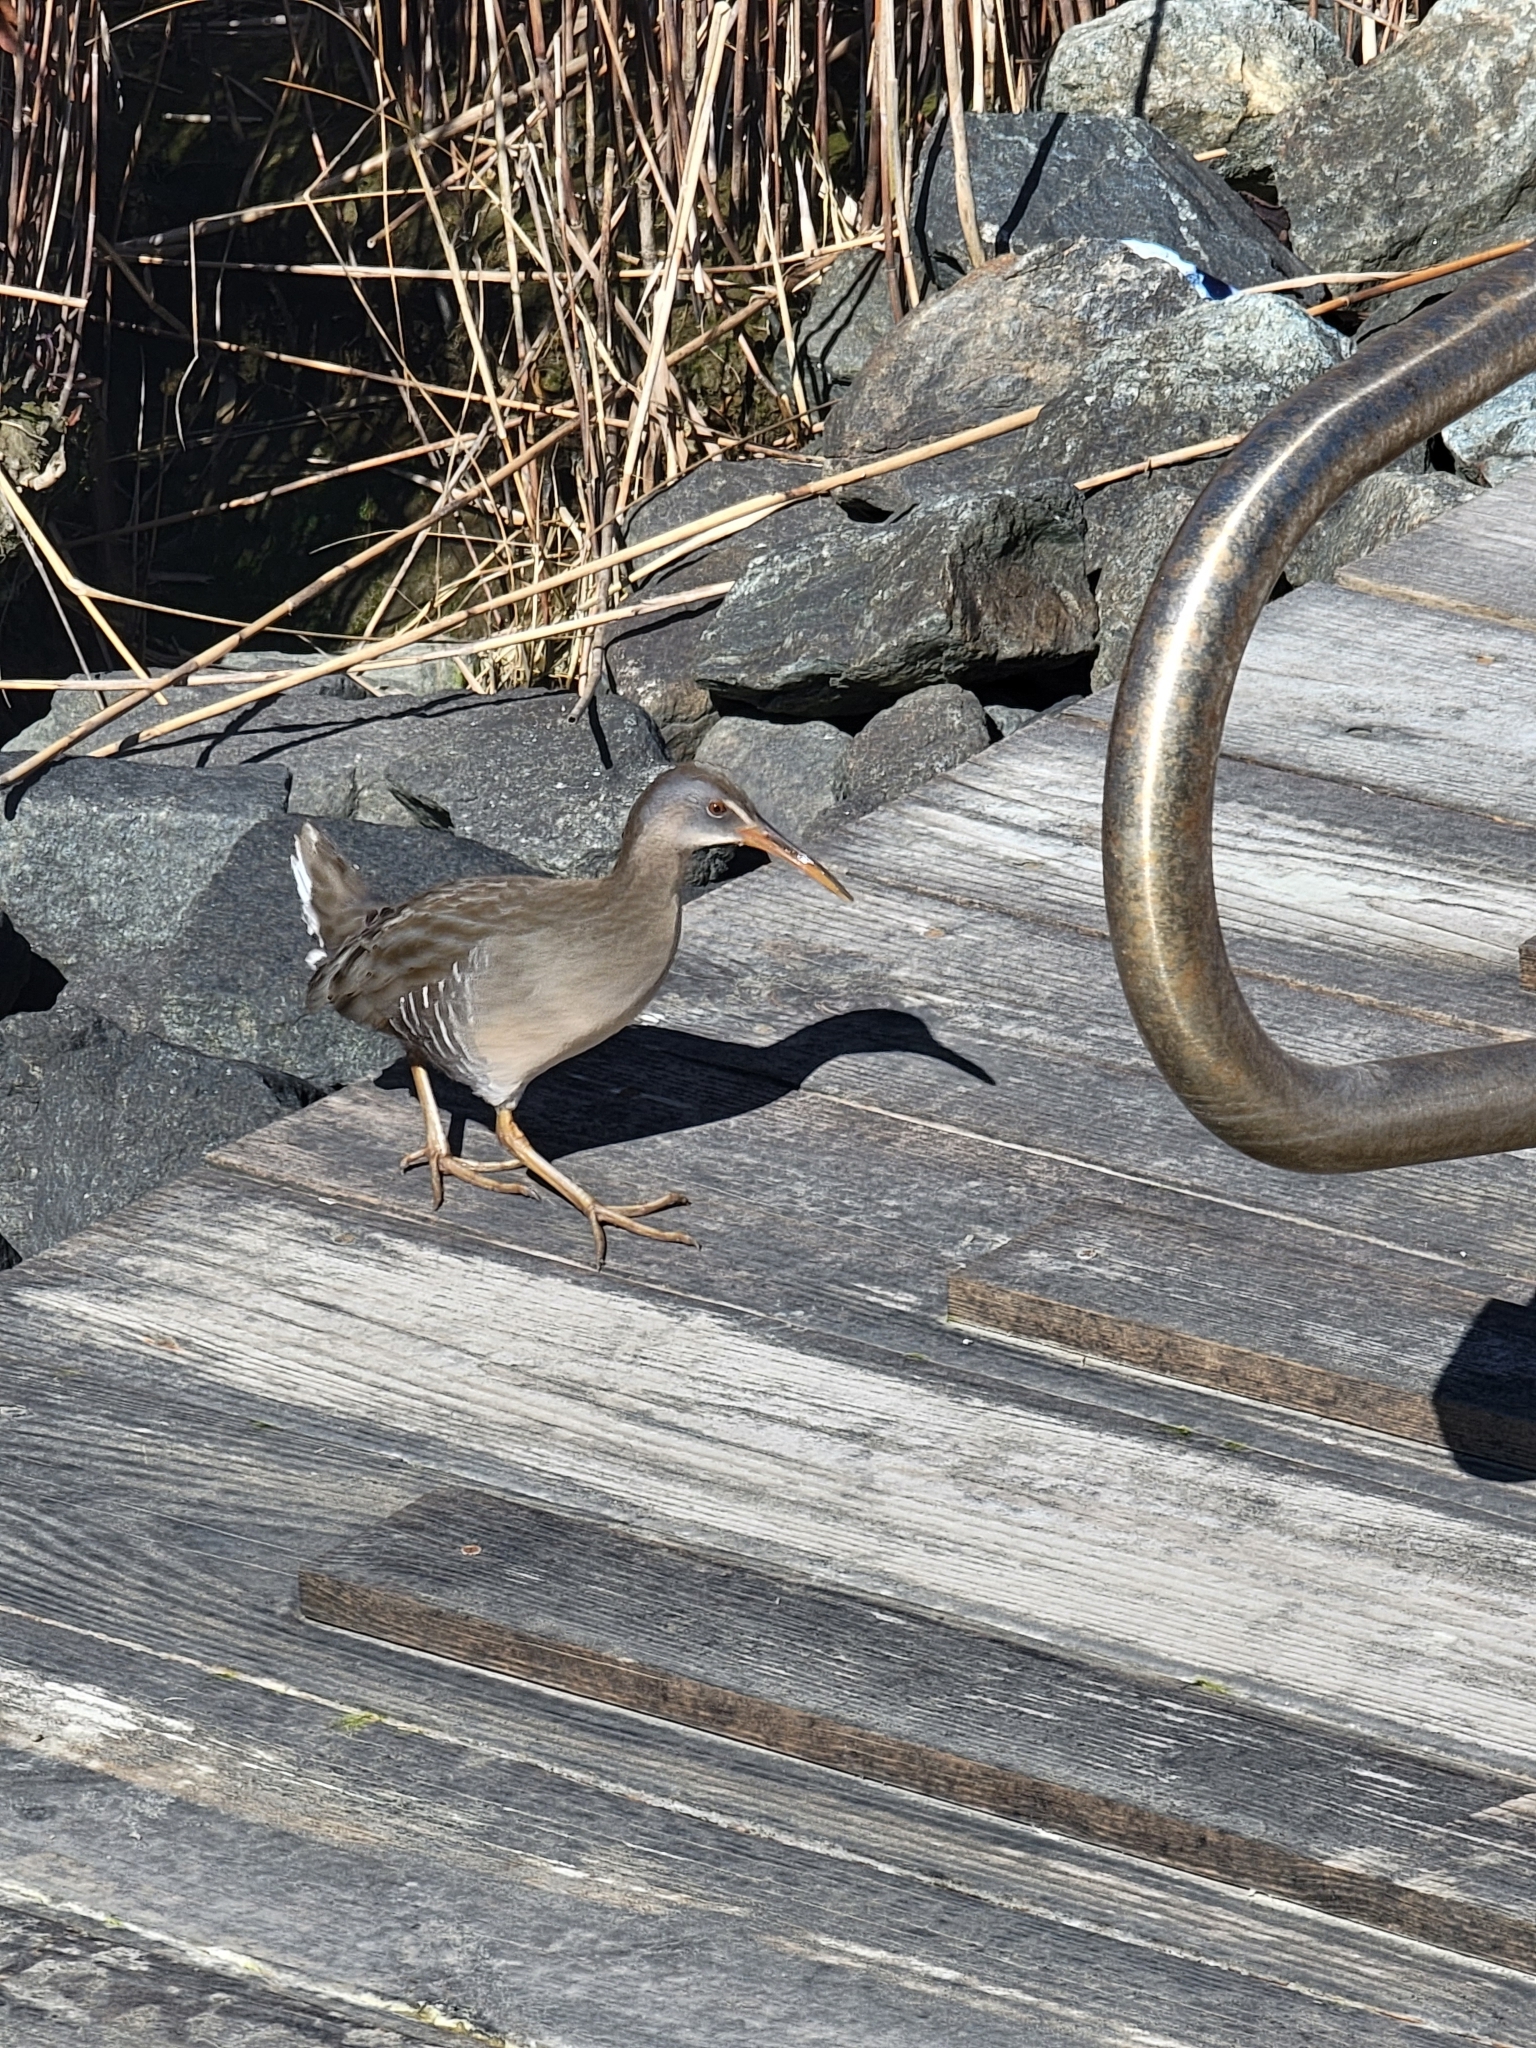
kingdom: Animalia
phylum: Chordata
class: Aves
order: Gruiformes
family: Rallidae
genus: Rallus
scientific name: Rallus crepitans
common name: Clapper rail
